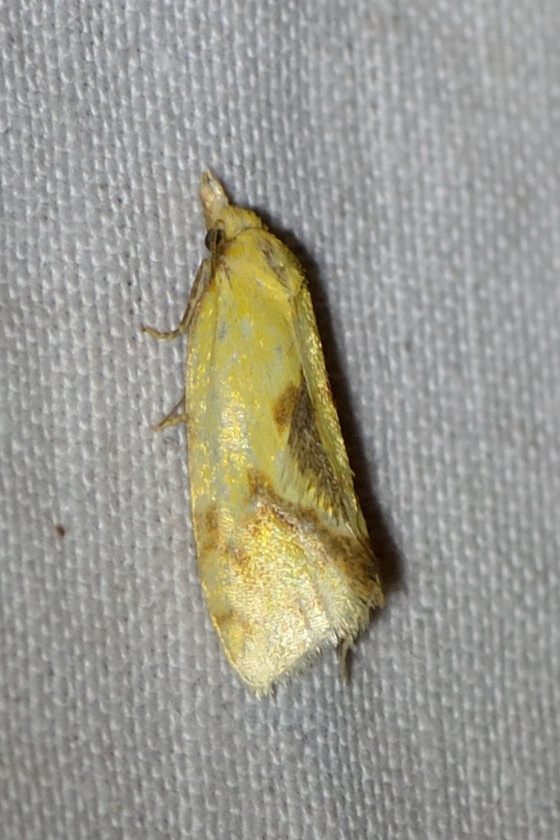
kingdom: Animalia
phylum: Arthropoda
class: Insecta
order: Lepidoptera
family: Tortricidae
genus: Agapeta
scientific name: Agapeta hamana
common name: Common yellow conch
